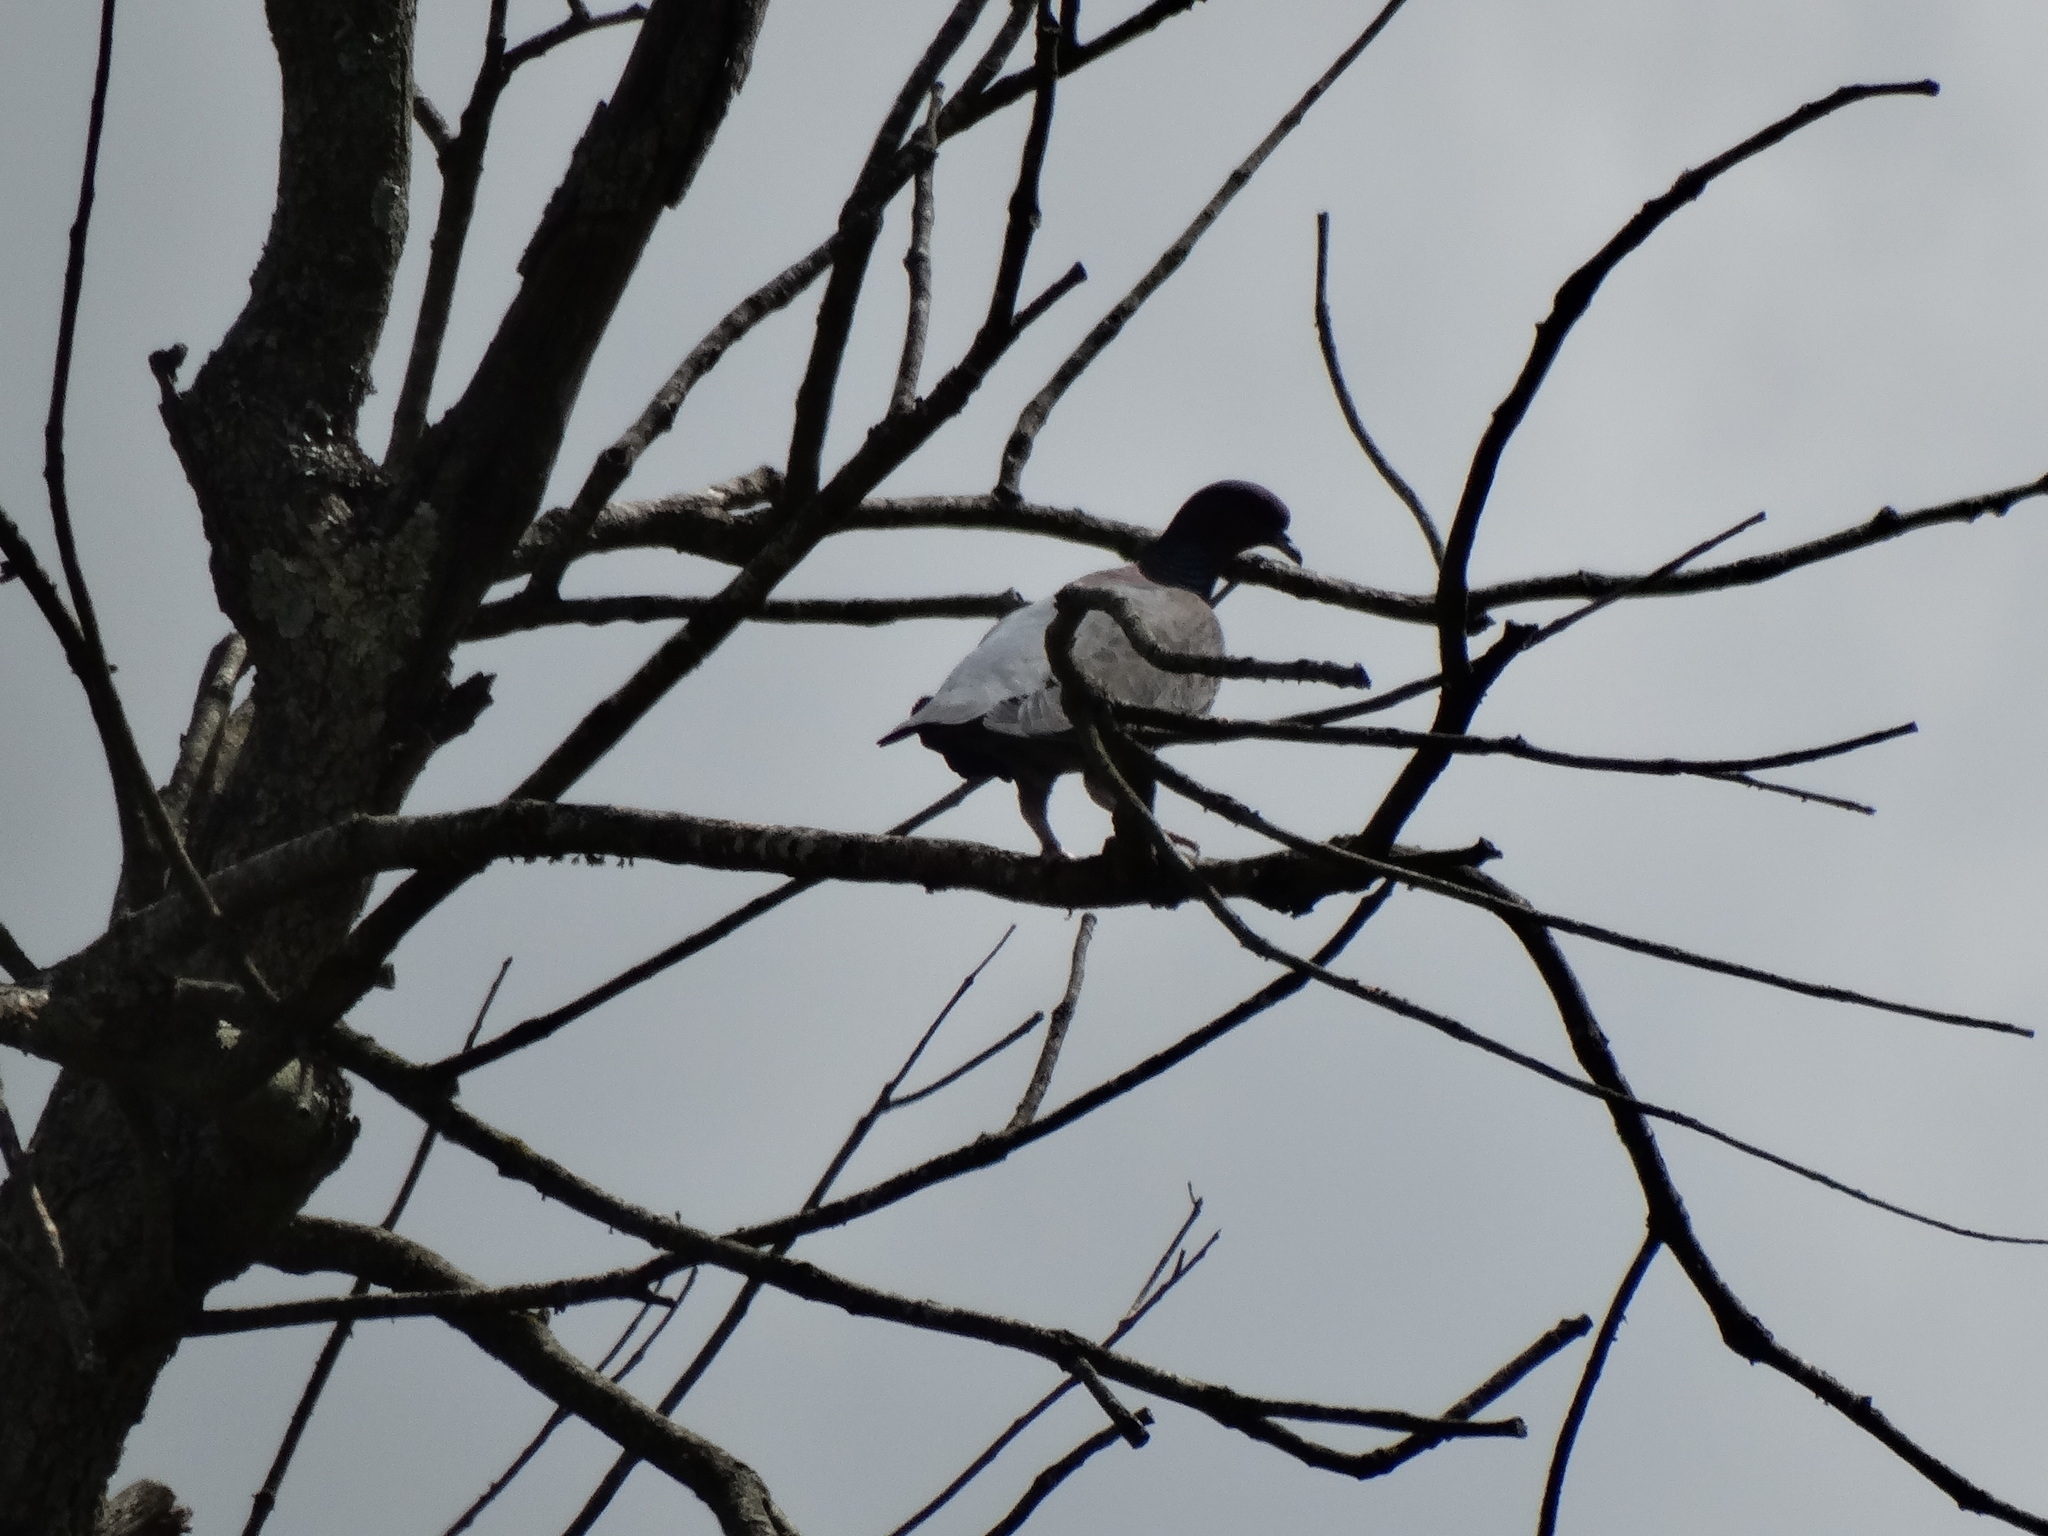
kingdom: Animalia
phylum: Chordata
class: Aves
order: Columbiformes
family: Columbidae
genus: Patagioenas
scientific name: Patagioenas picazuro
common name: Picazuro pigeon
